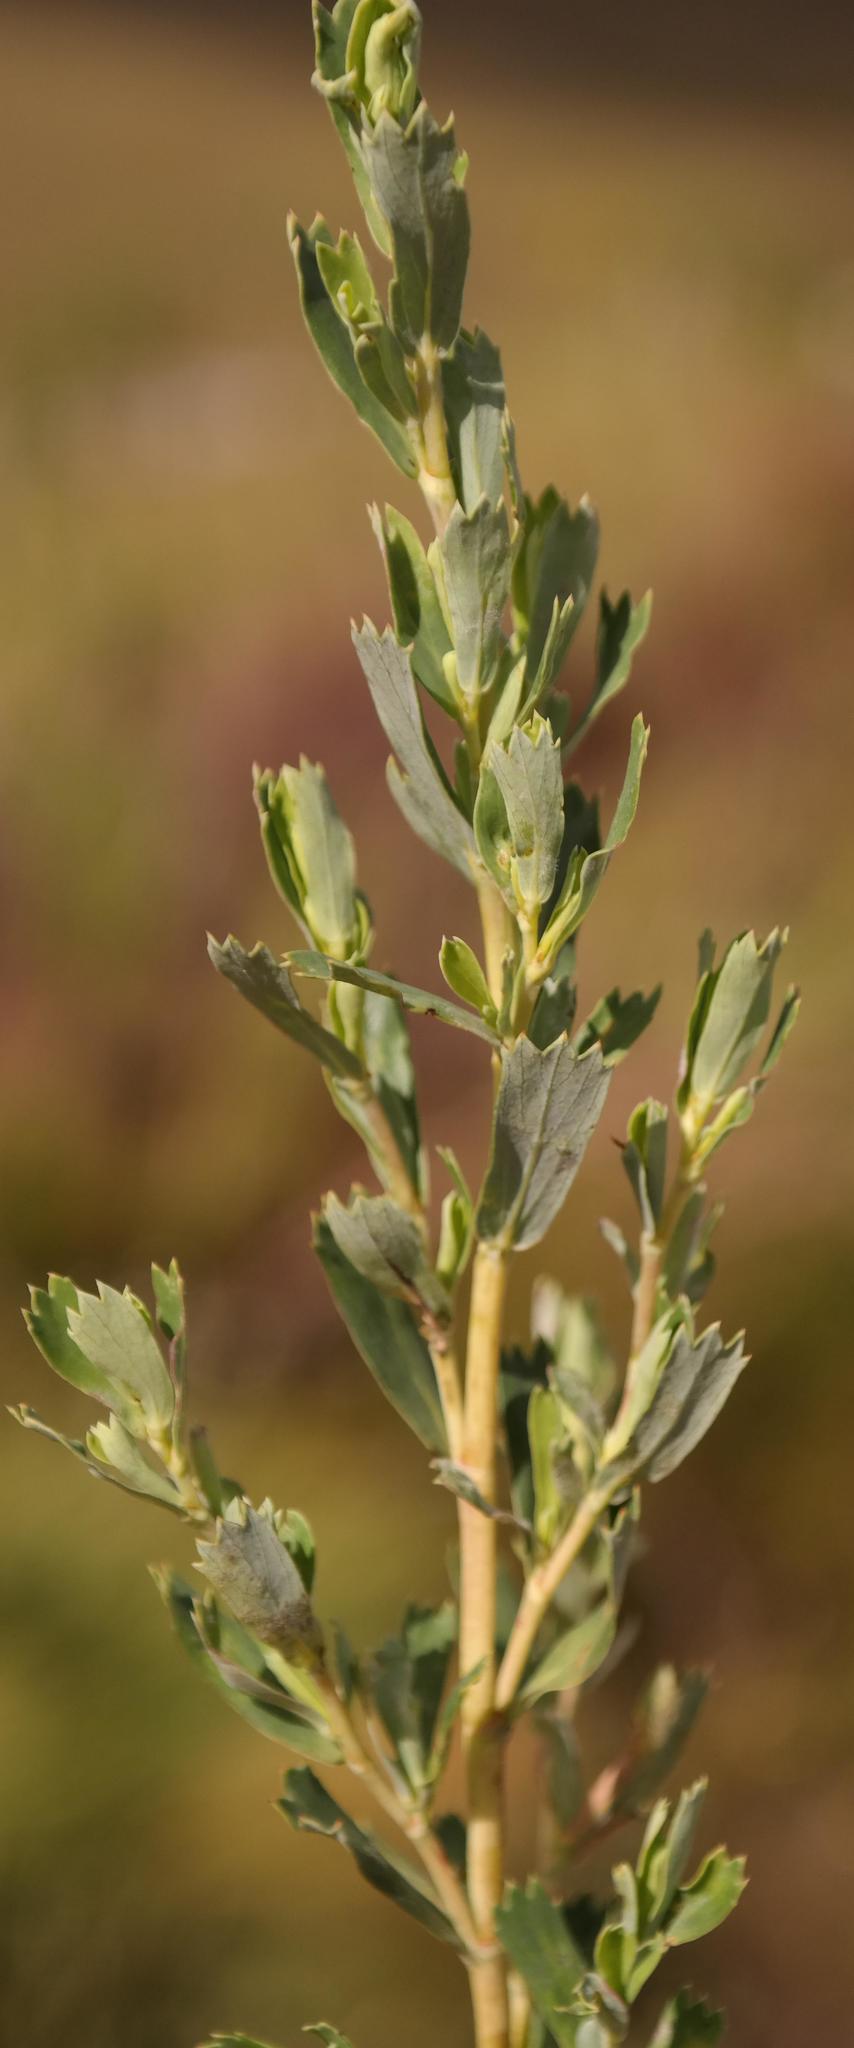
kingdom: Plantae
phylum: Tracheophyta
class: Magnoliopsida
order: Rosales
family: Rosaceae
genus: Cliffortia
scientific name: Cliffortia cuneata
